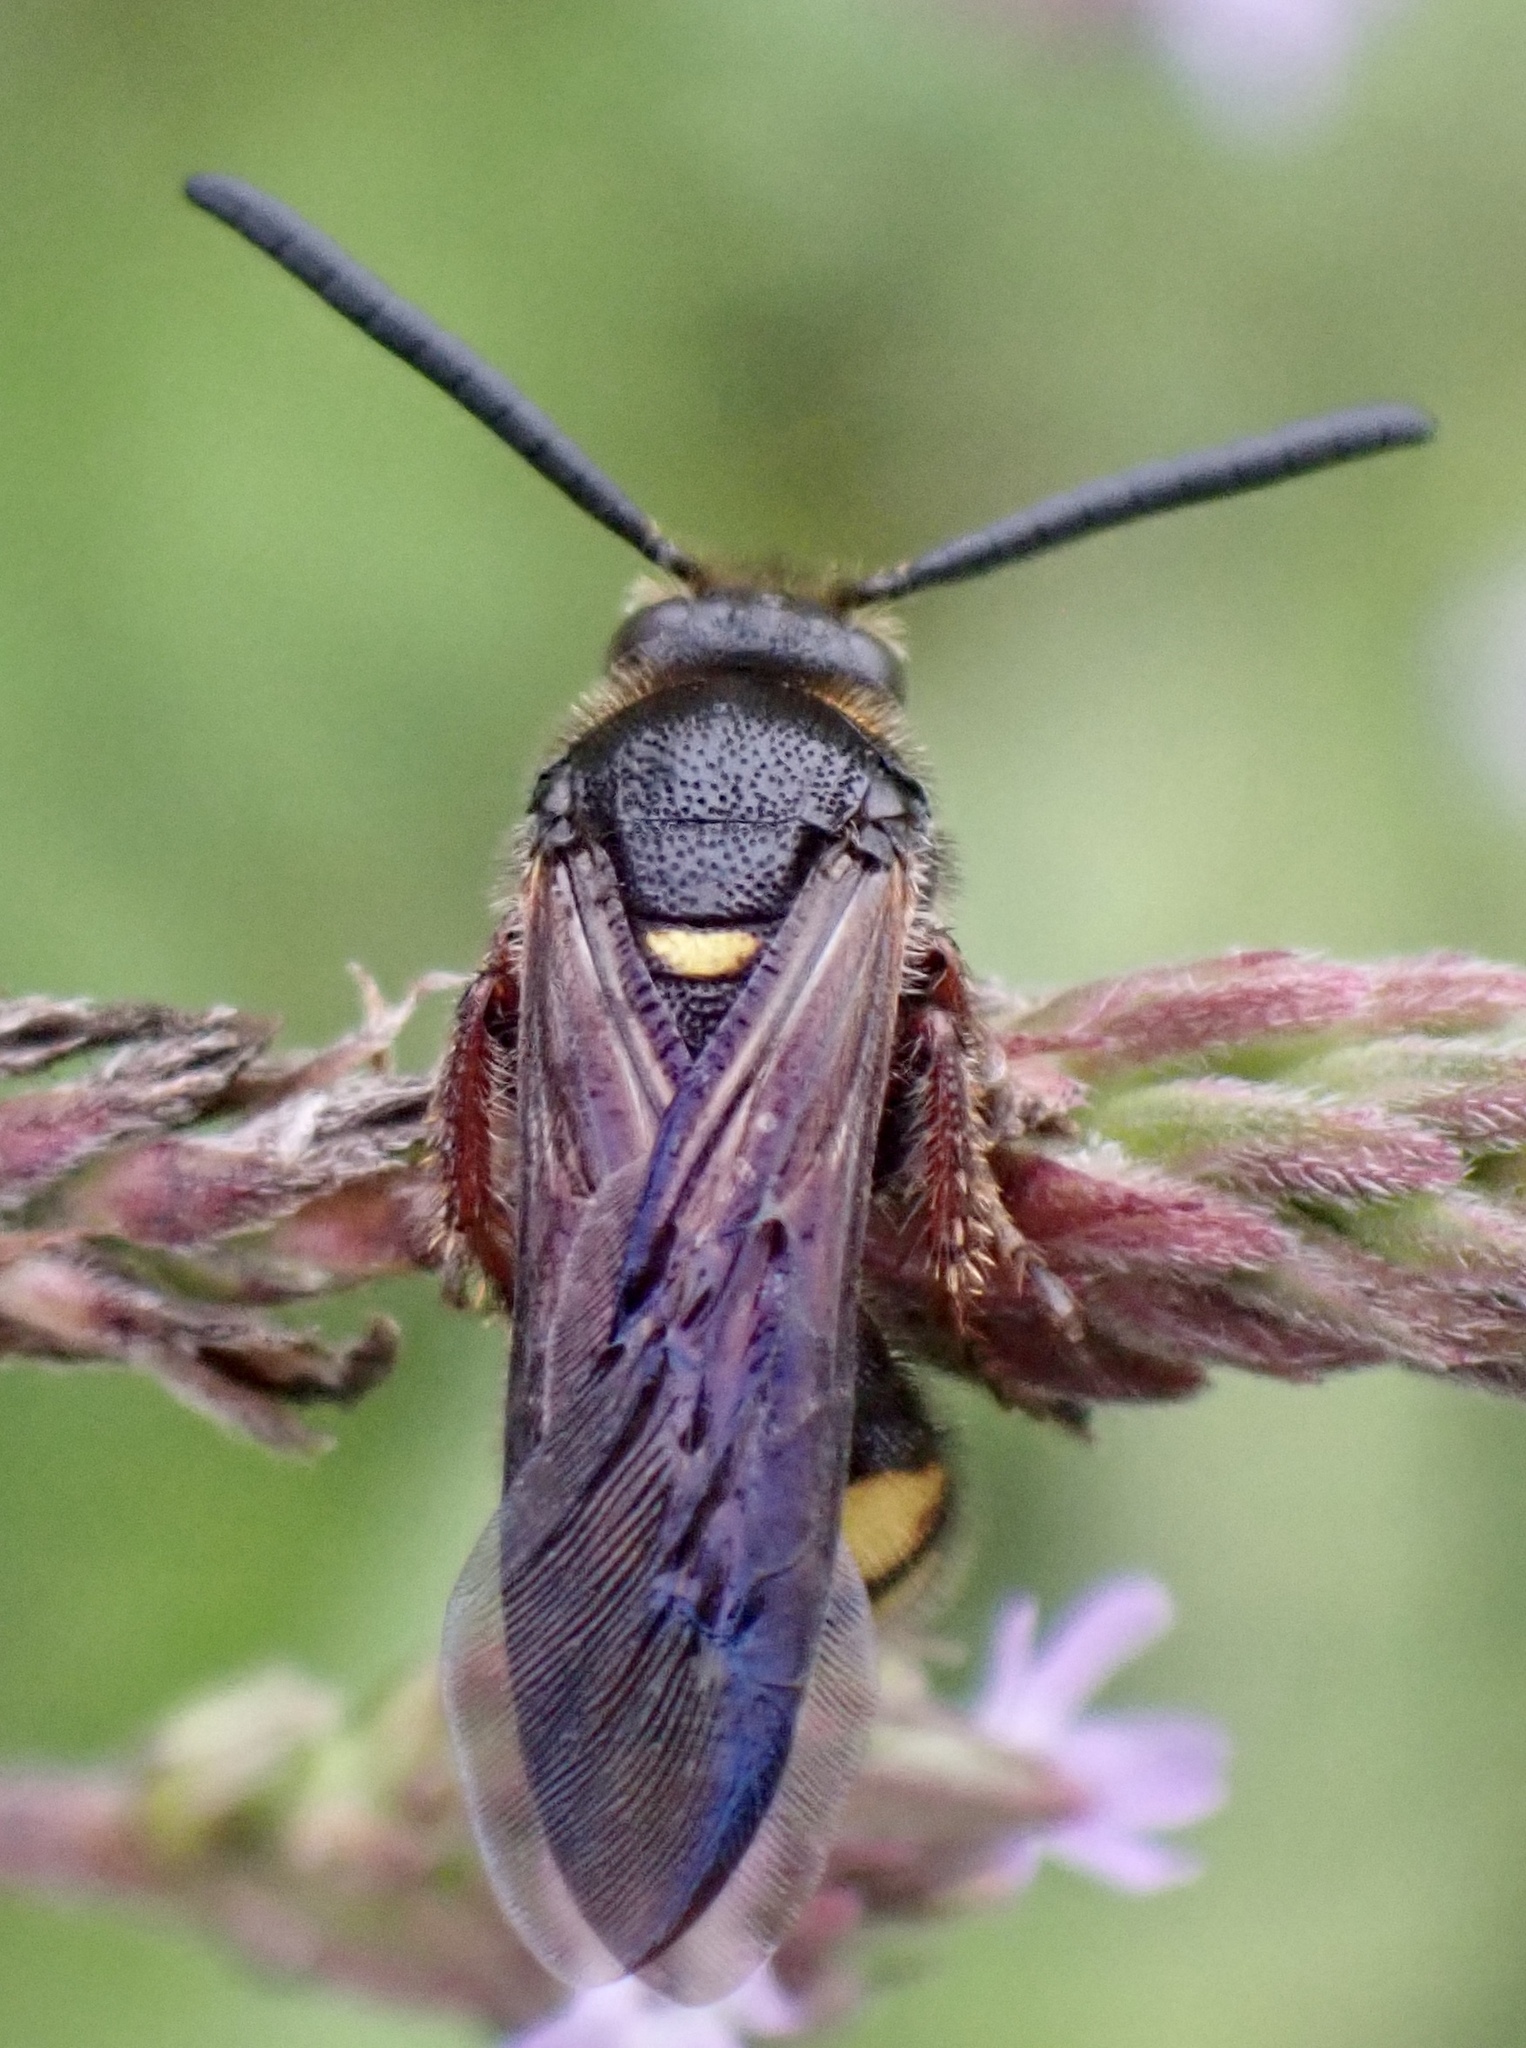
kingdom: Animalia
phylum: Arthropoda
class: Insecta
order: Hymenoptera
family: Scoliidae
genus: Scolia
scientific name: Scolia nobilitata
